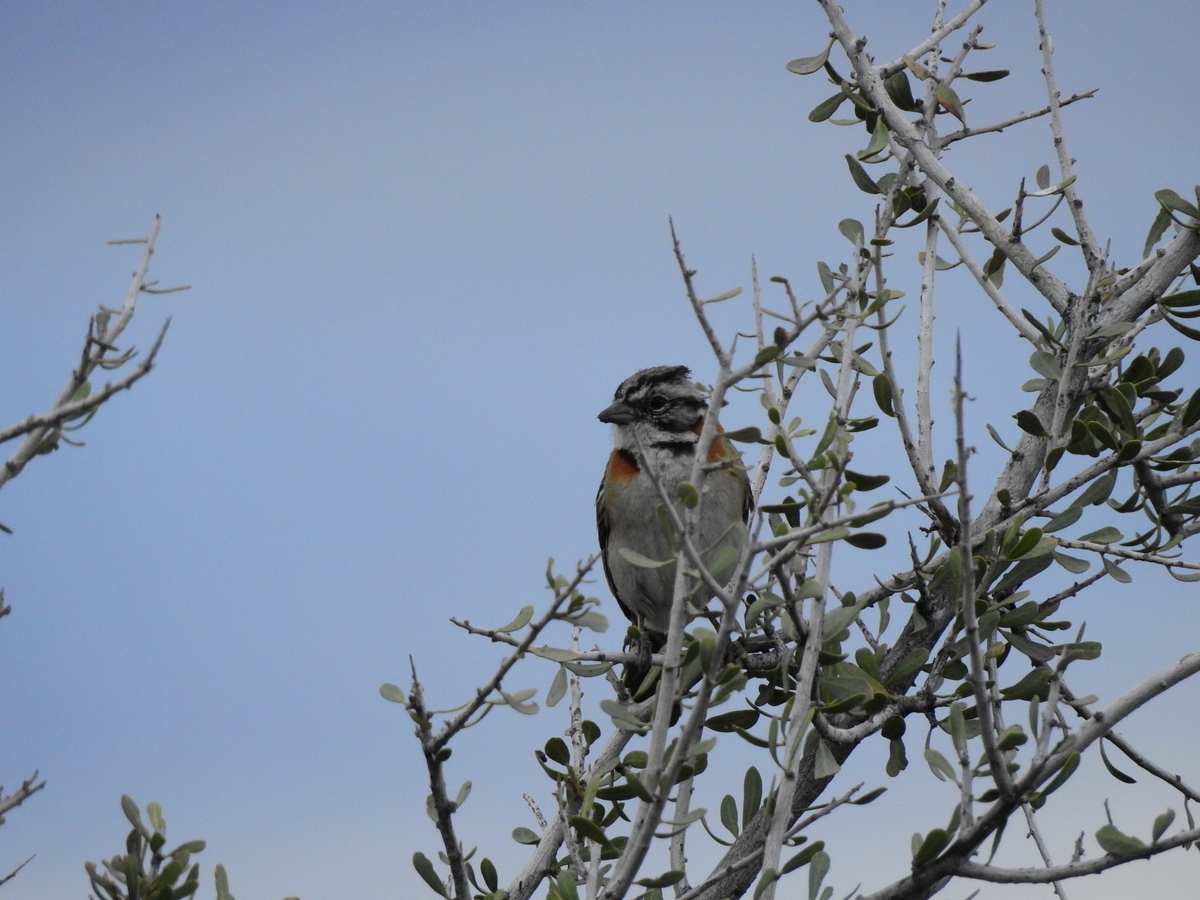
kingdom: Animalia
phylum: Chordata
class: Aves
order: Passeriformes
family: Passerellidae
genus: Zonotrichia
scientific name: Zonotrichia capensis
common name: Rufous-collared sparrow
